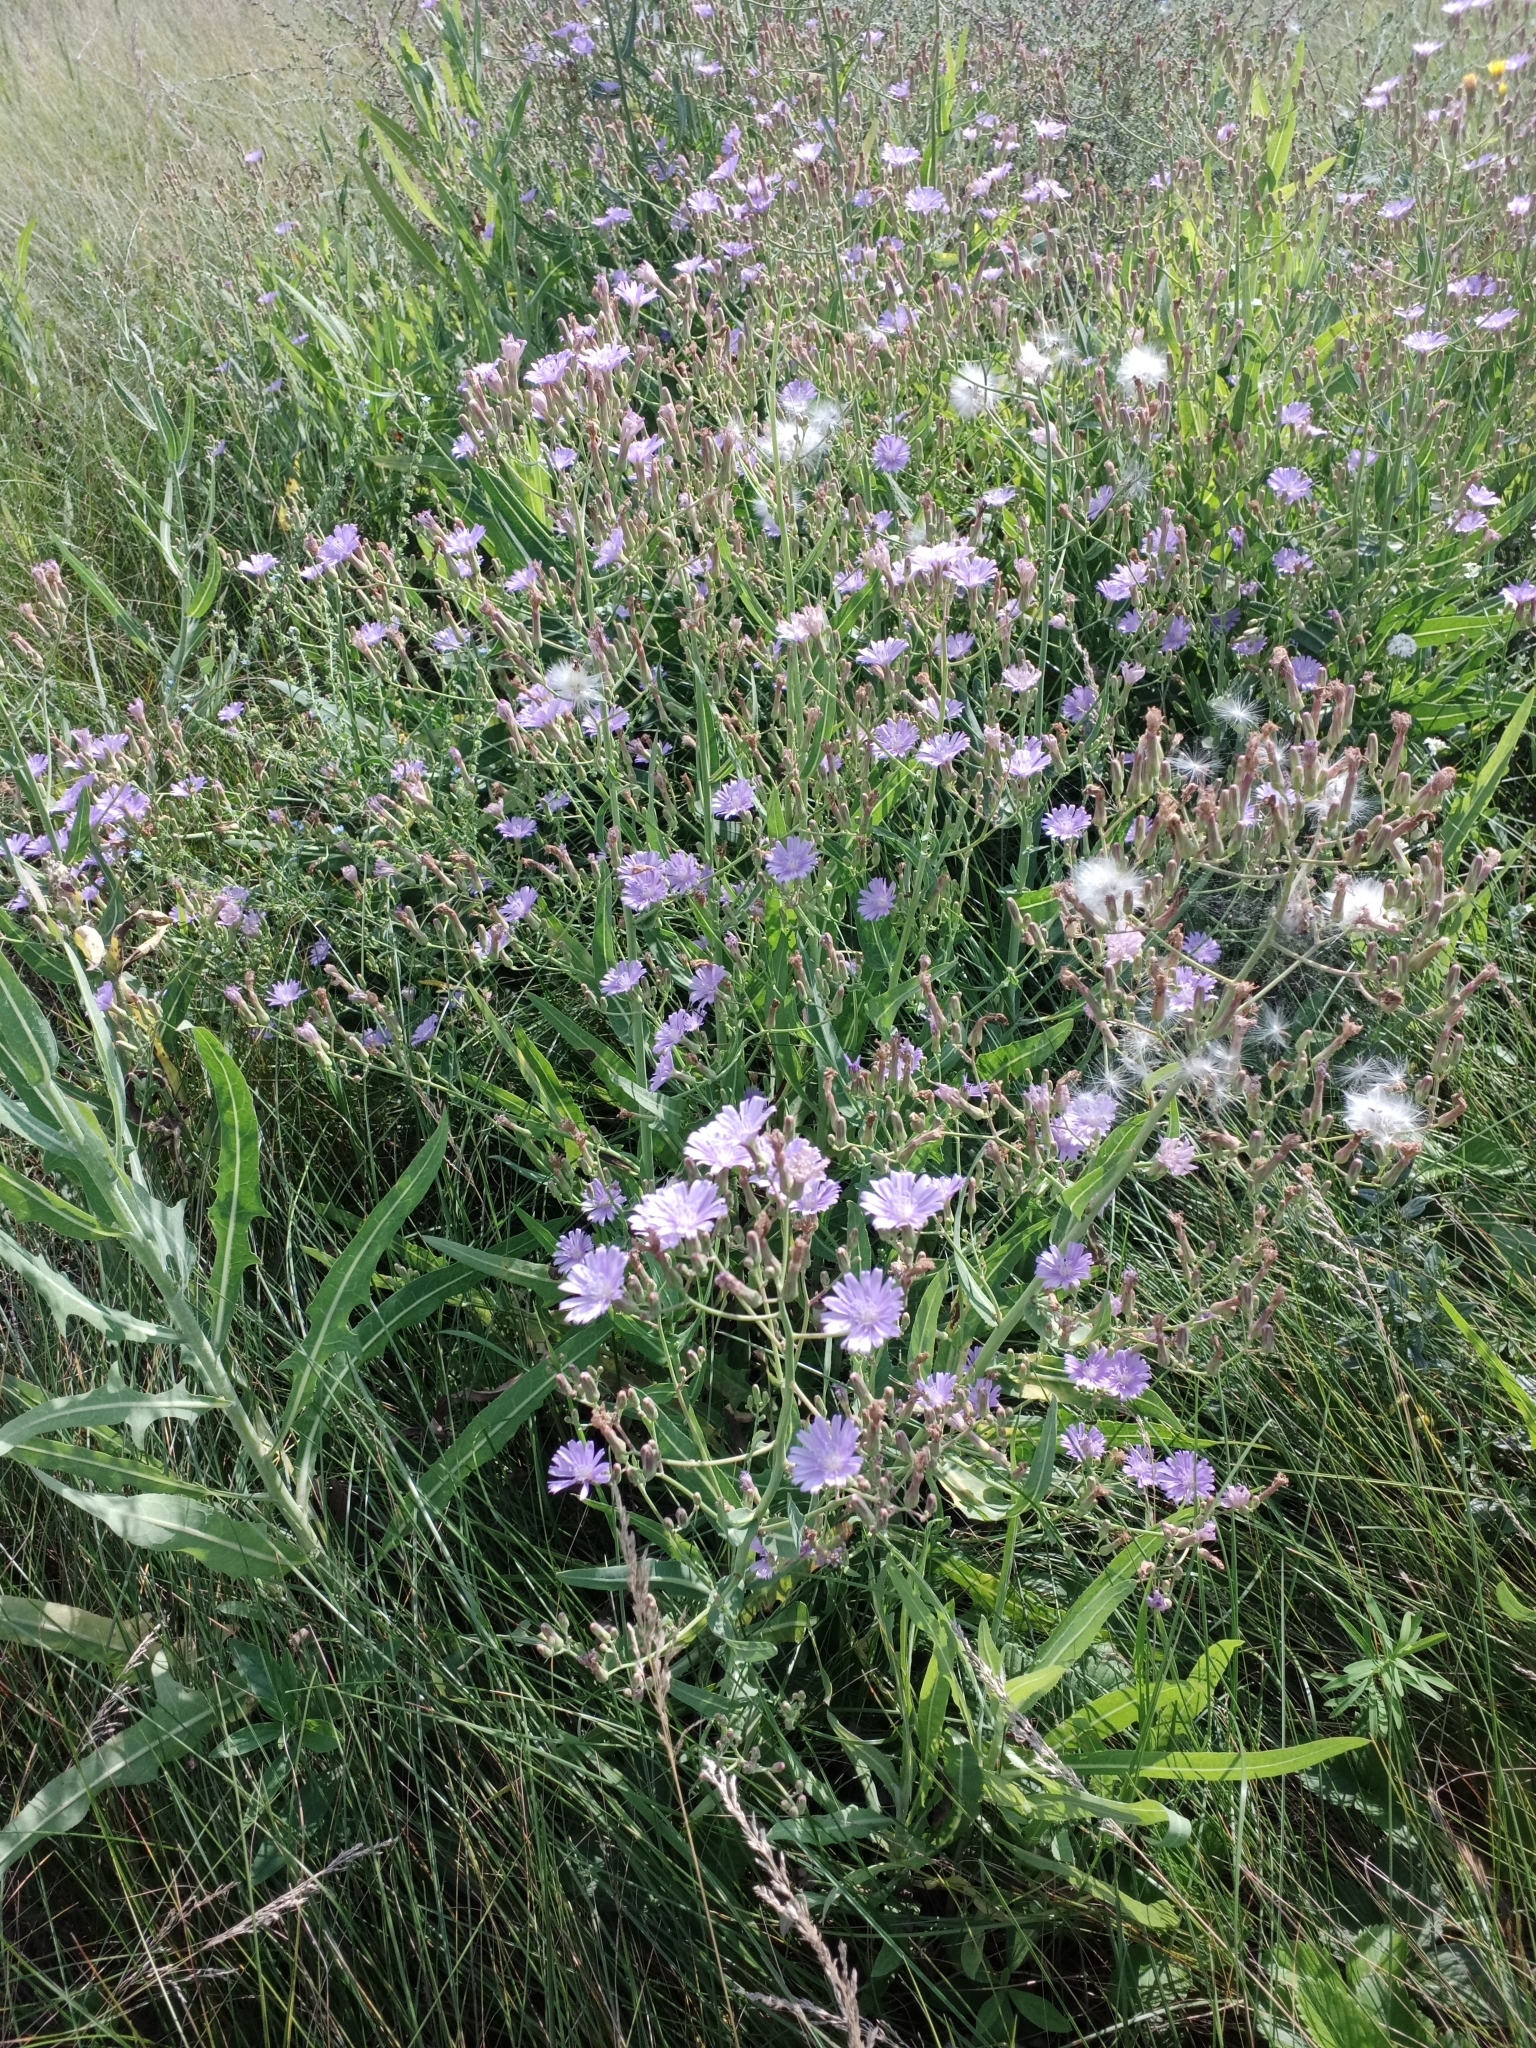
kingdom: Plantae
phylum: Tracheophyta
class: Magnoliopsida
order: Asterales
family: Asteraceae
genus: Lactuca
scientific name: Lactuca tatarica
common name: Blue lettuce
